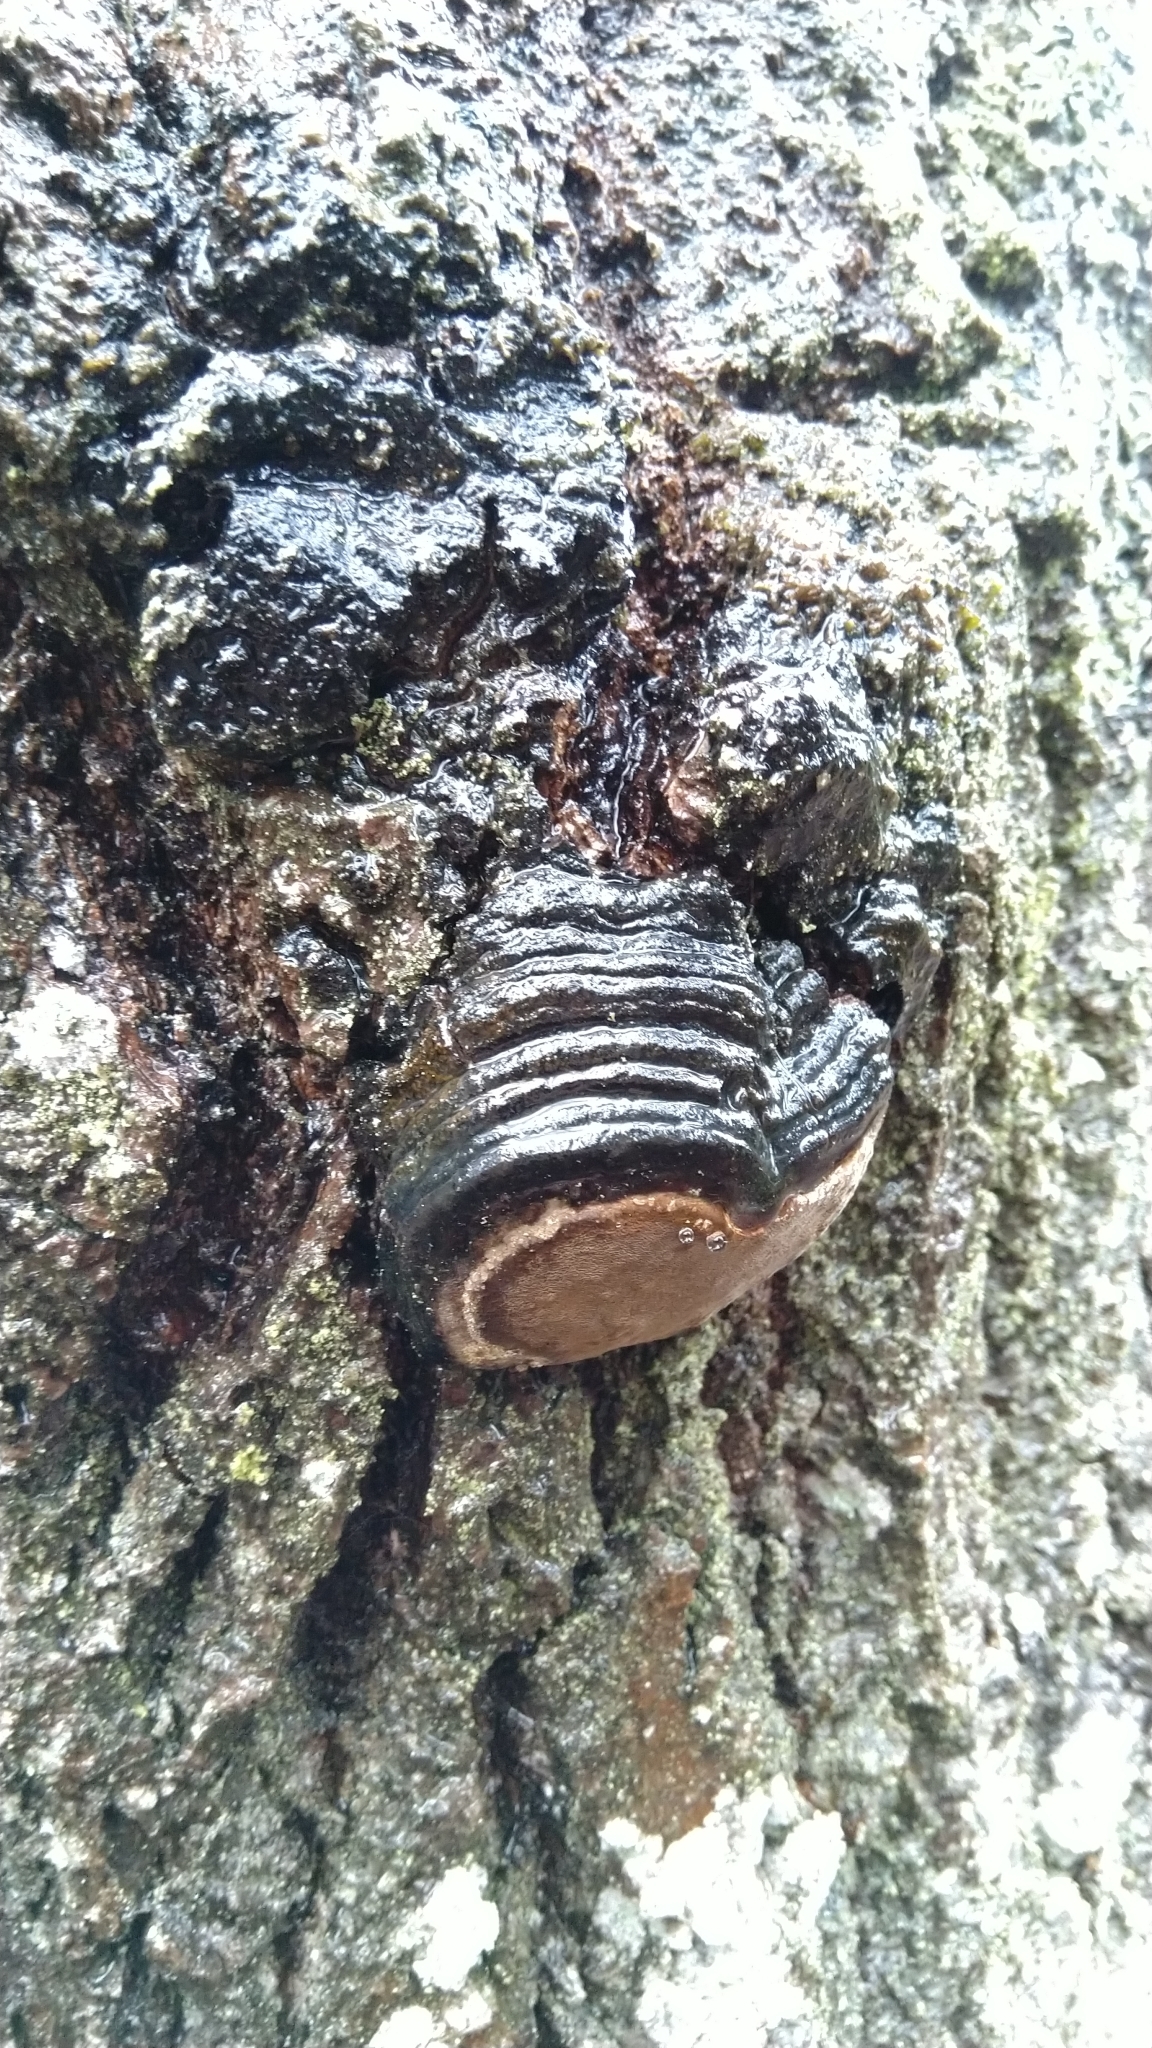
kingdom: Fungi
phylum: Basidiomycota
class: Agaricomycetes
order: Hymenochaetales
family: Hymenochaetaceae
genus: Phellinus
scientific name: Phellinus tremulae
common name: Aspen bracket
